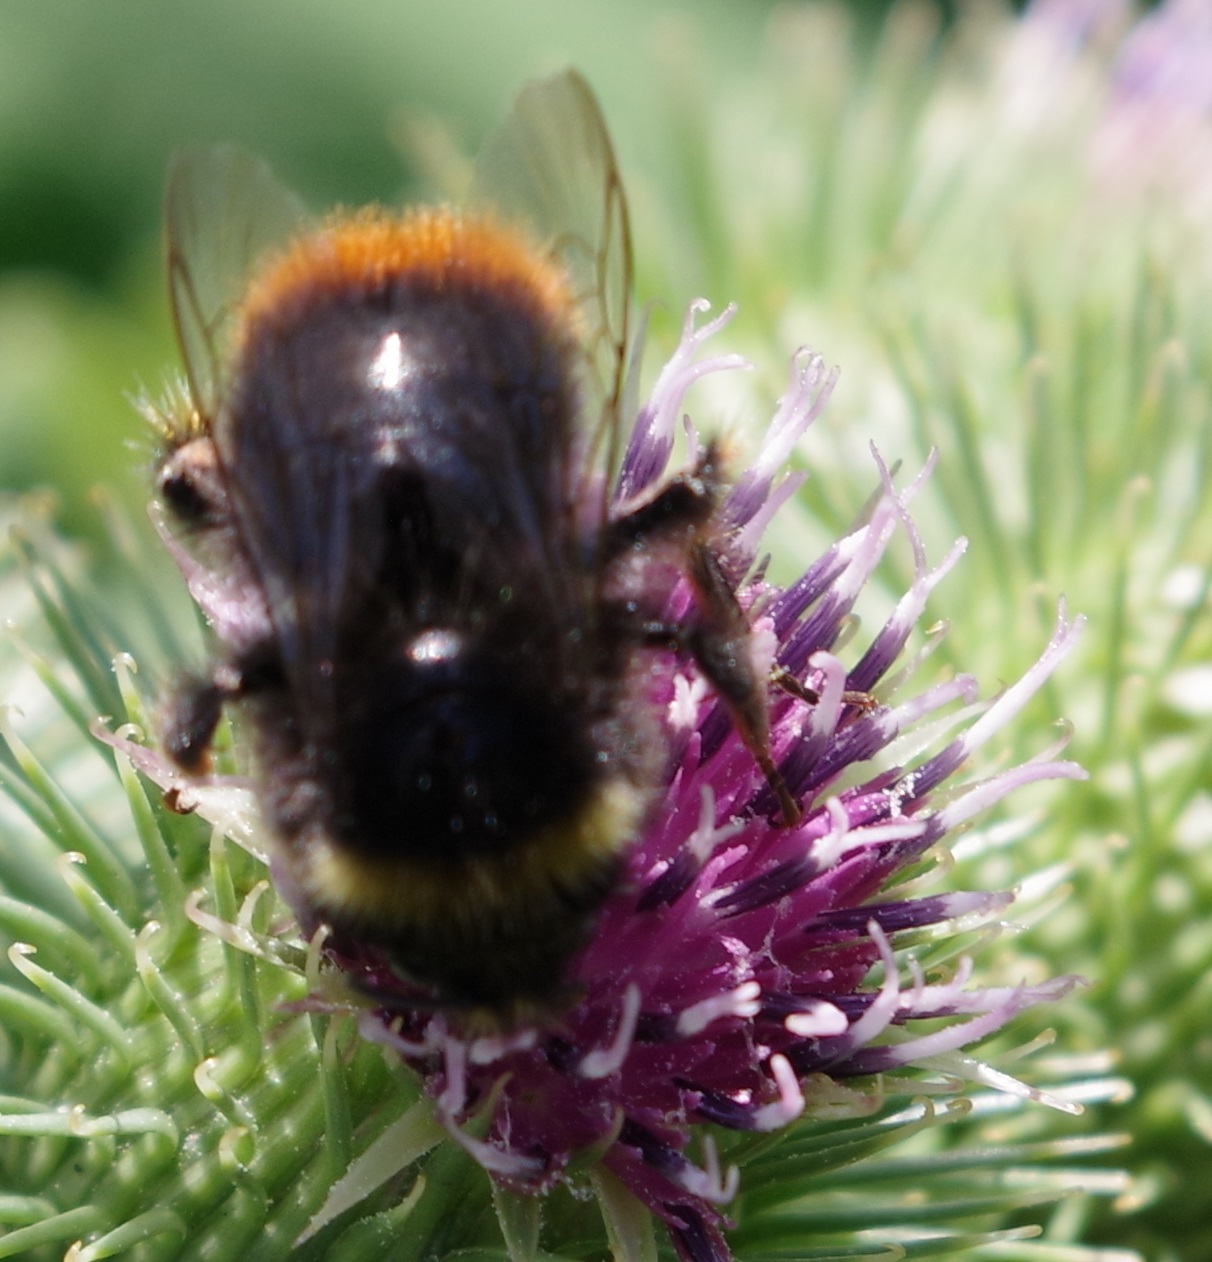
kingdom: Animalia
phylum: Arthropoda
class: Insecta
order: Hymenoptera
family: Apidae
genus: Bombus
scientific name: Bombus lapidarius
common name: Large red-tailed humble-bee
